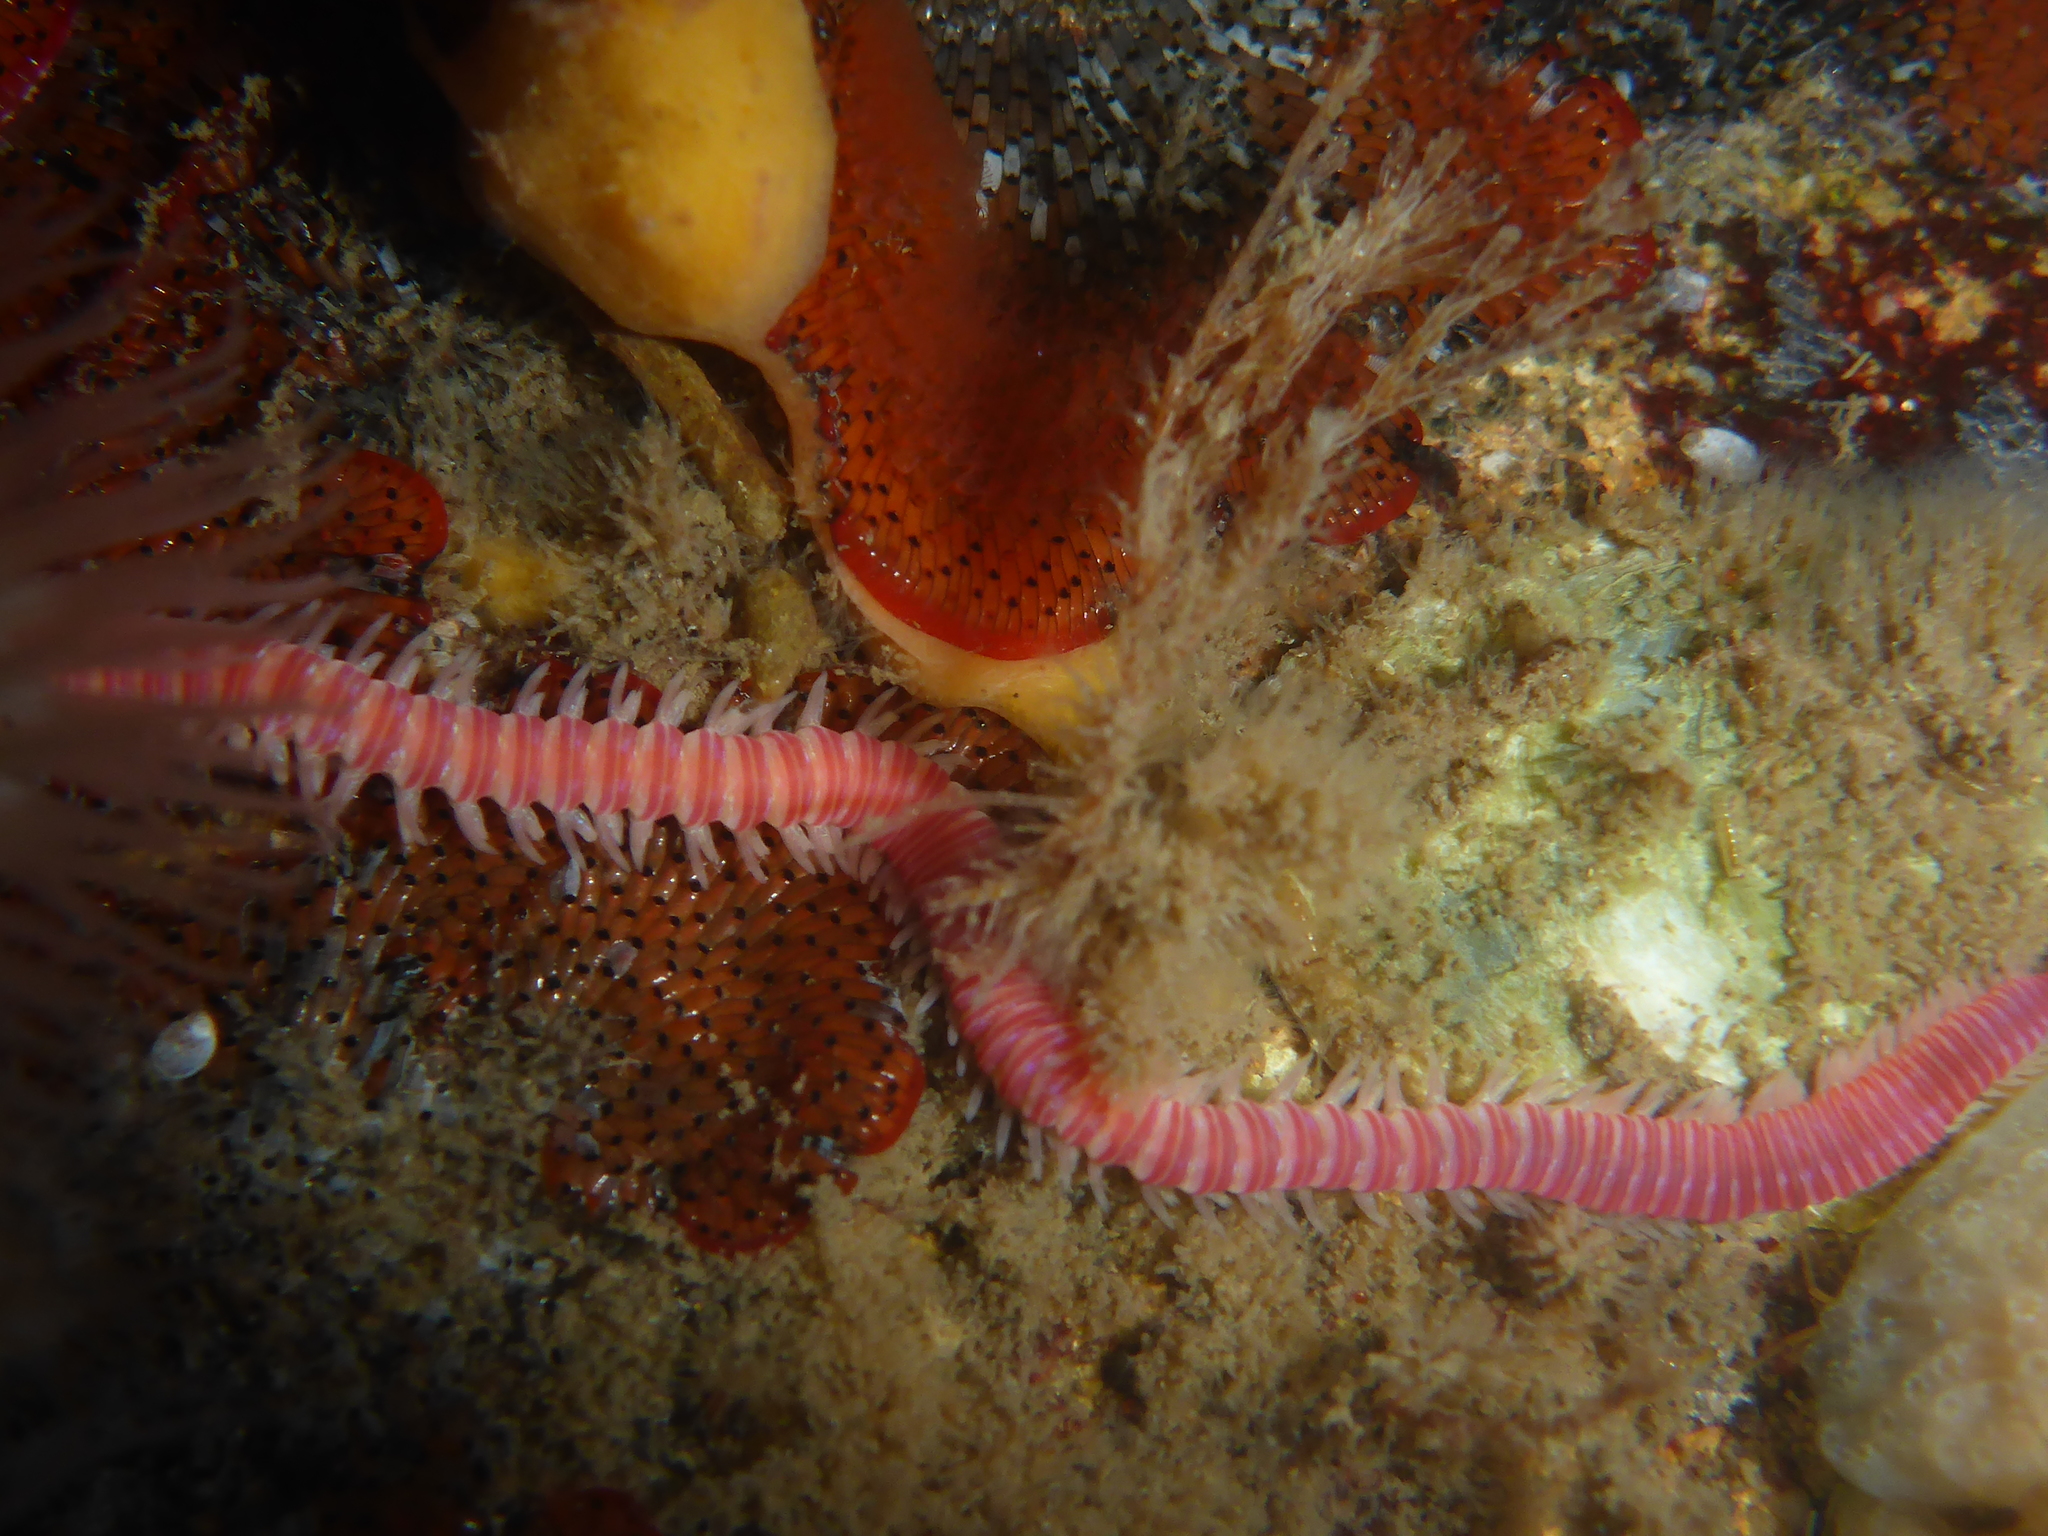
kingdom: Animalia
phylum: Annelida
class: Polychaeta
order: Eunicida
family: Dorvilleidae
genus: Dorvillea
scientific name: Dorvillea moniloceras
